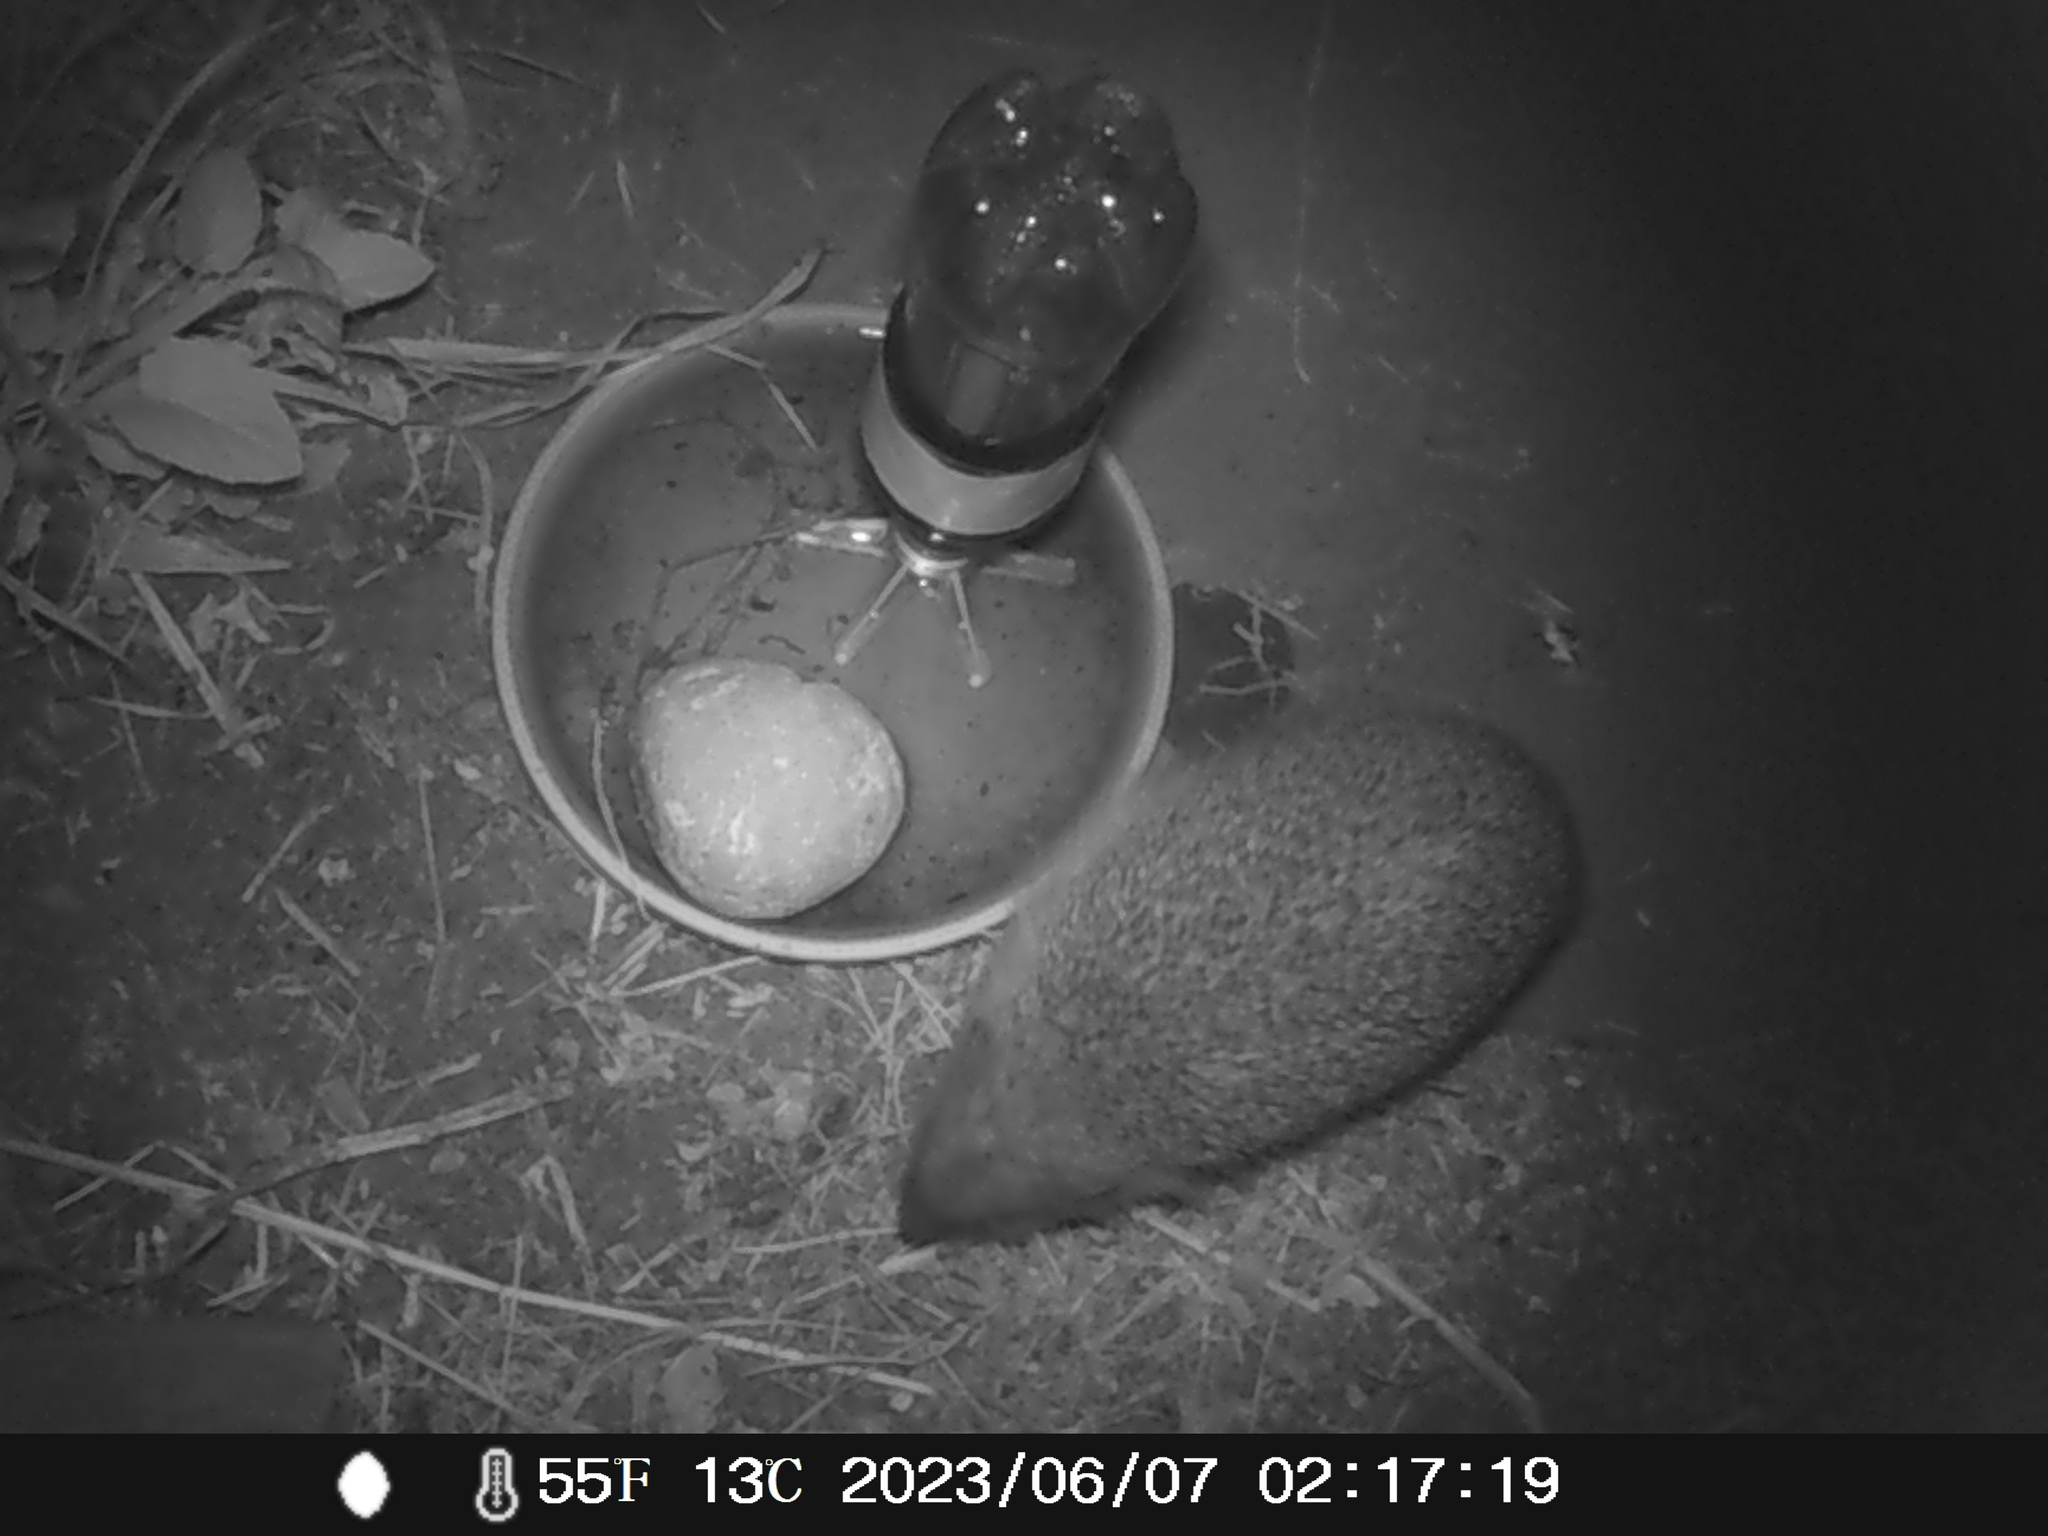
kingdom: Animalia
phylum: Chordata
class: Mammalia
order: Erinaceomorpha
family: Erinaceidae
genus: Erinaceus
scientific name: Erinaceus europaeus
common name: West european hedgehog
